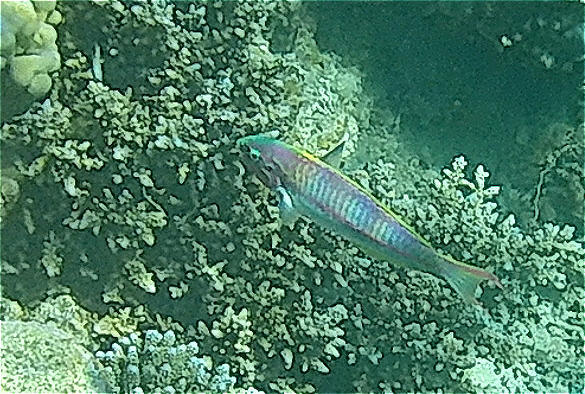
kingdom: Animalia
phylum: Chordata
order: Perciformes
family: Labridae
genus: Thalassoma
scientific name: Thalassoma rueppellii
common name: Klunzinger's wrasse
